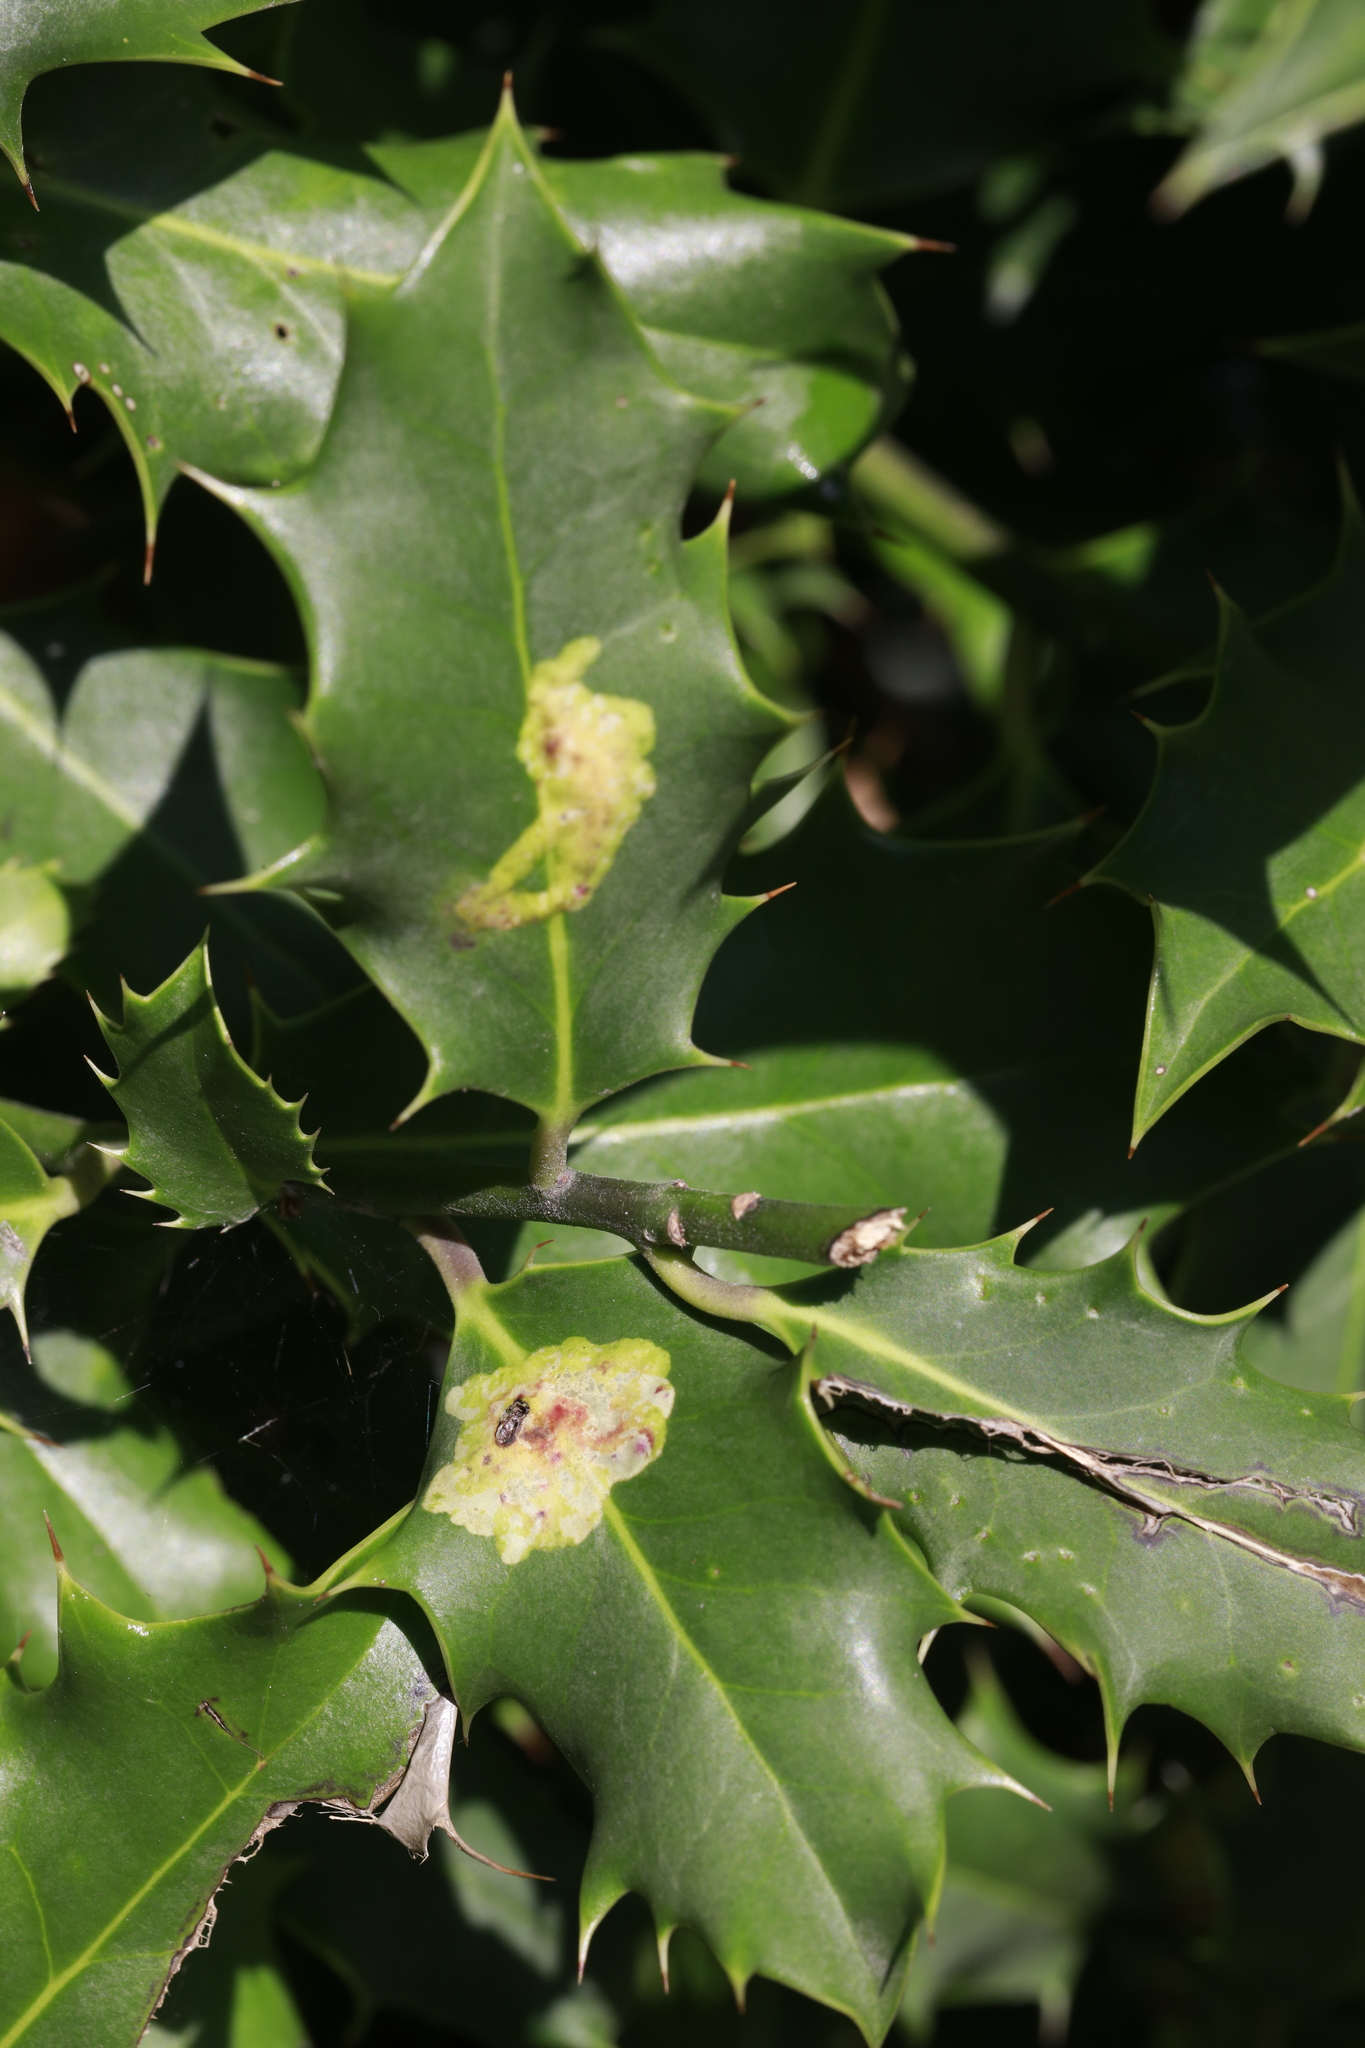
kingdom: Animalia
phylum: Arthropoda
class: Insecta
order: Diptera
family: Agromyzidae
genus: Phytomyza
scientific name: Phytomyza ilicis
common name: Holly leafminer
